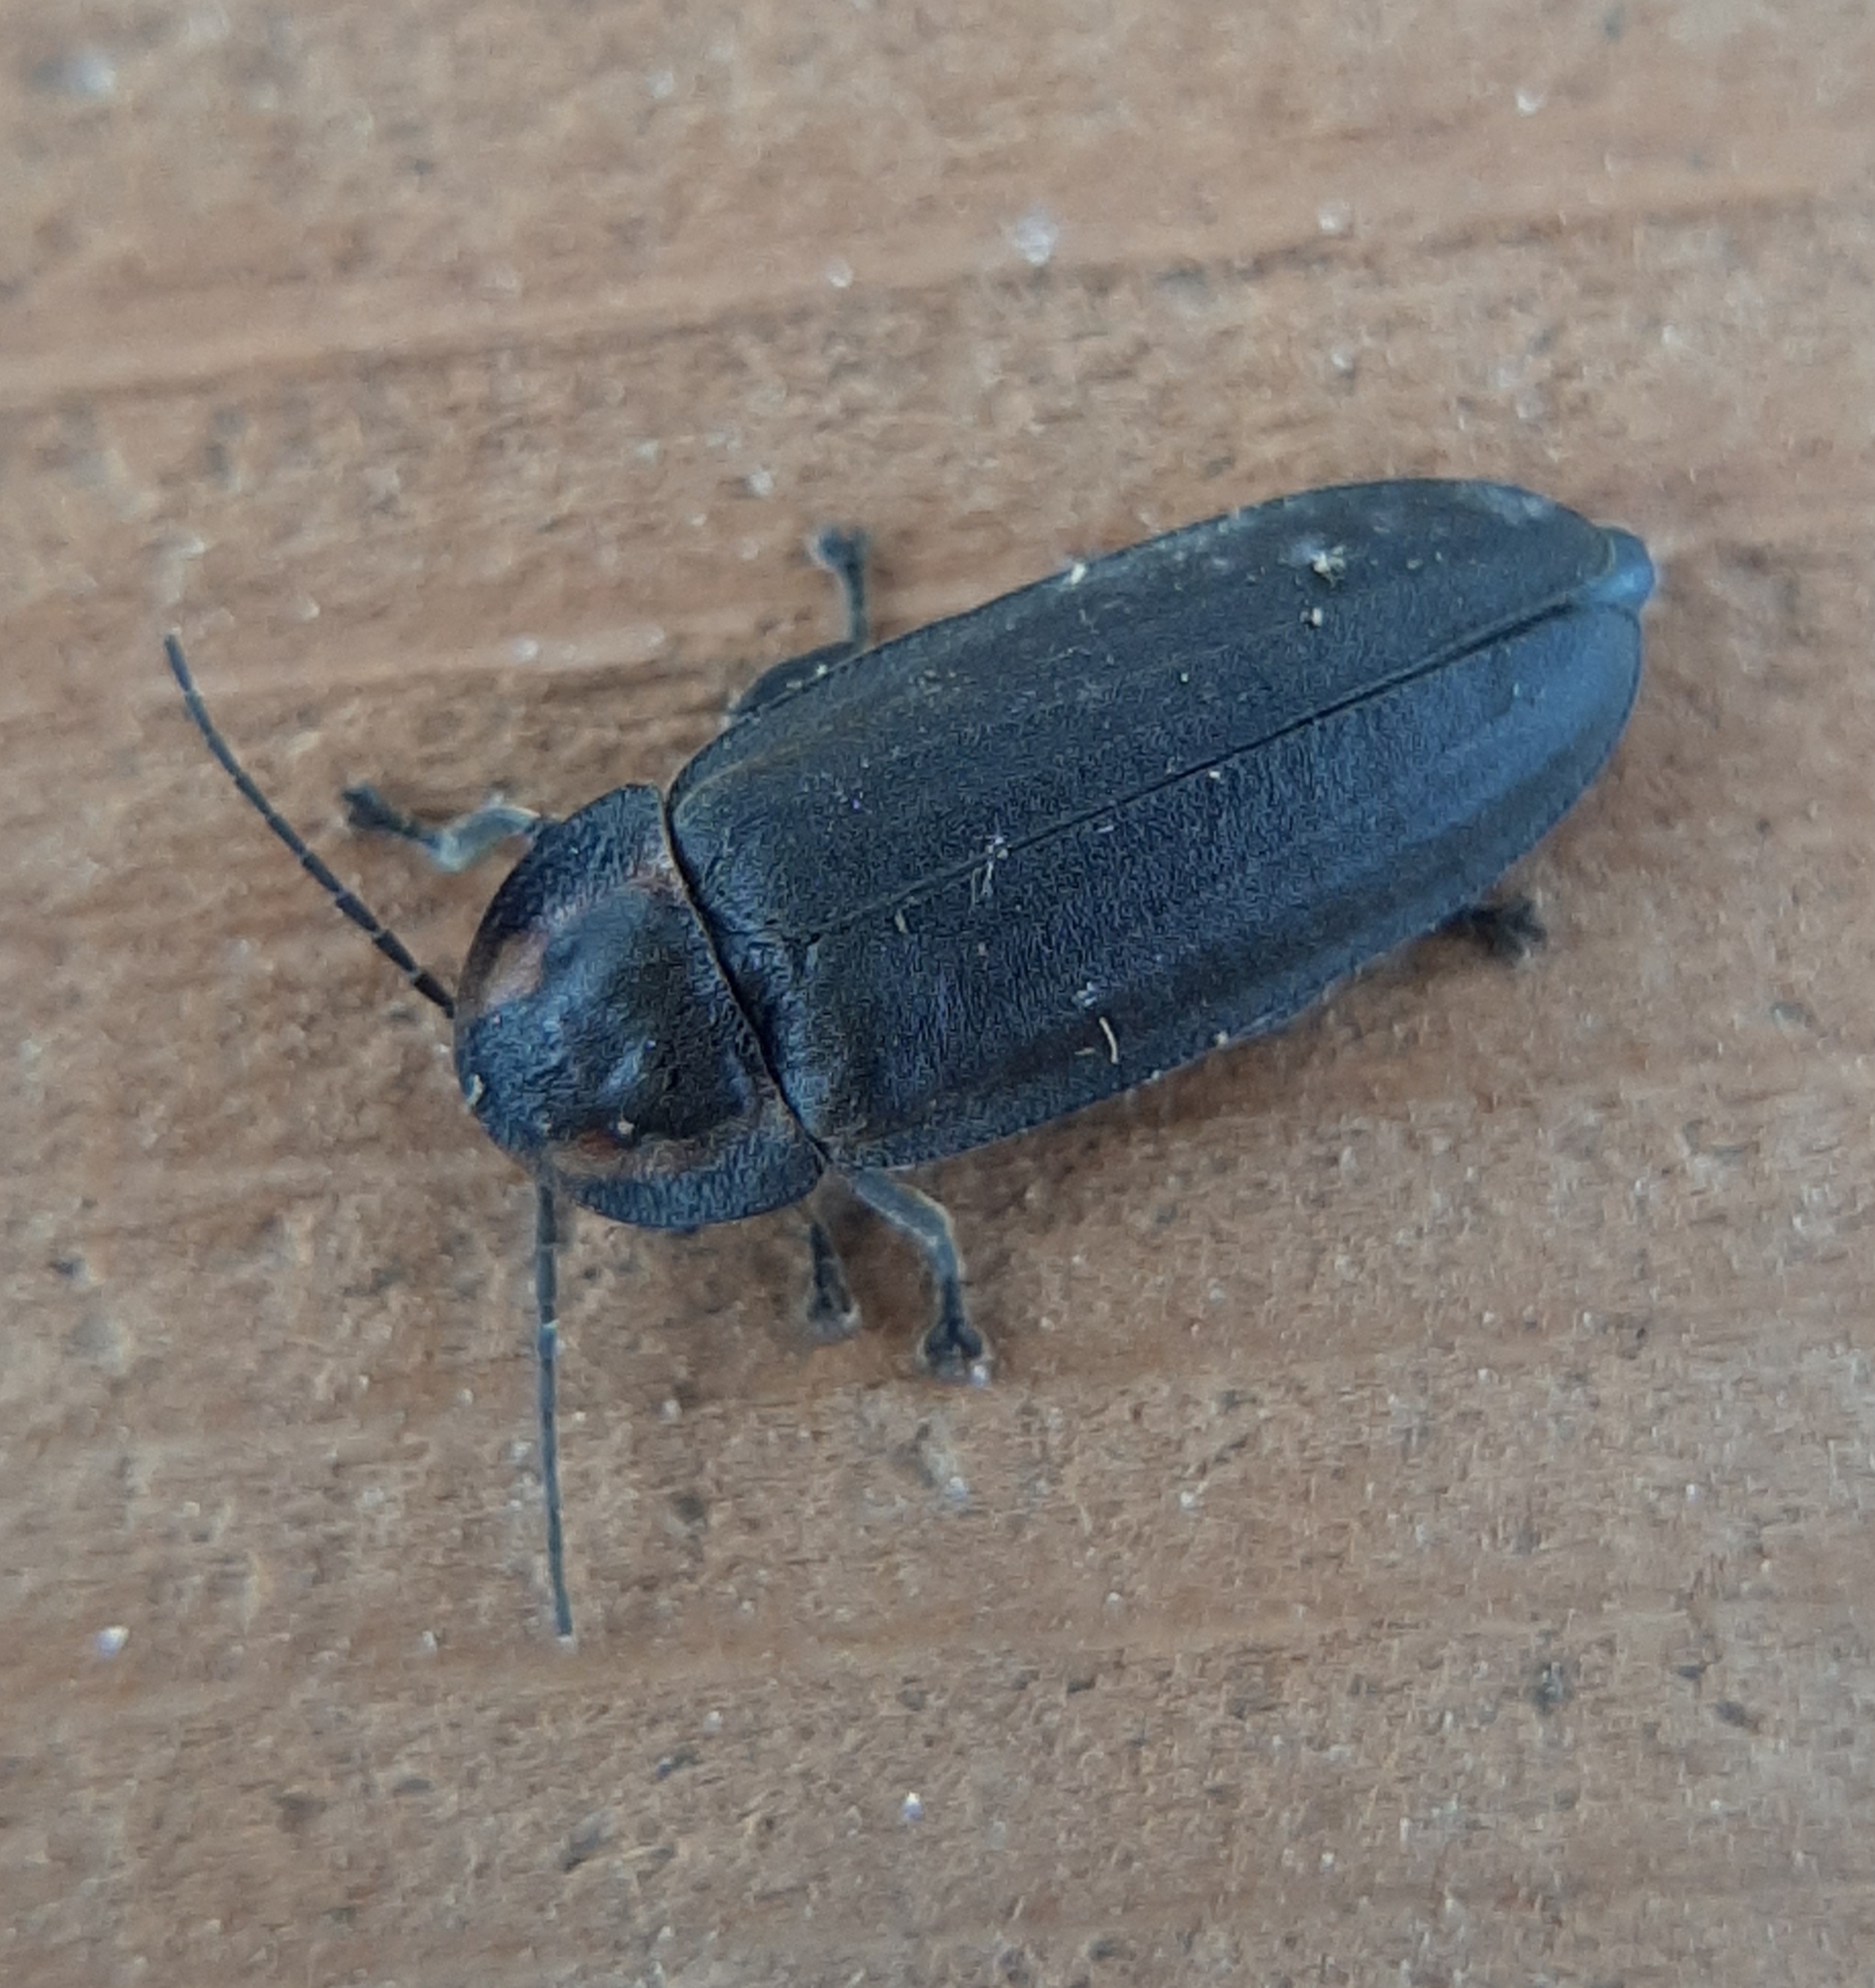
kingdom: Animalia
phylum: Arthropoda
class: Insecta
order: Coleoptera
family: Lampyridae
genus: Photinus
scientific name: Photinus corrusca
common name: Winter firefly
